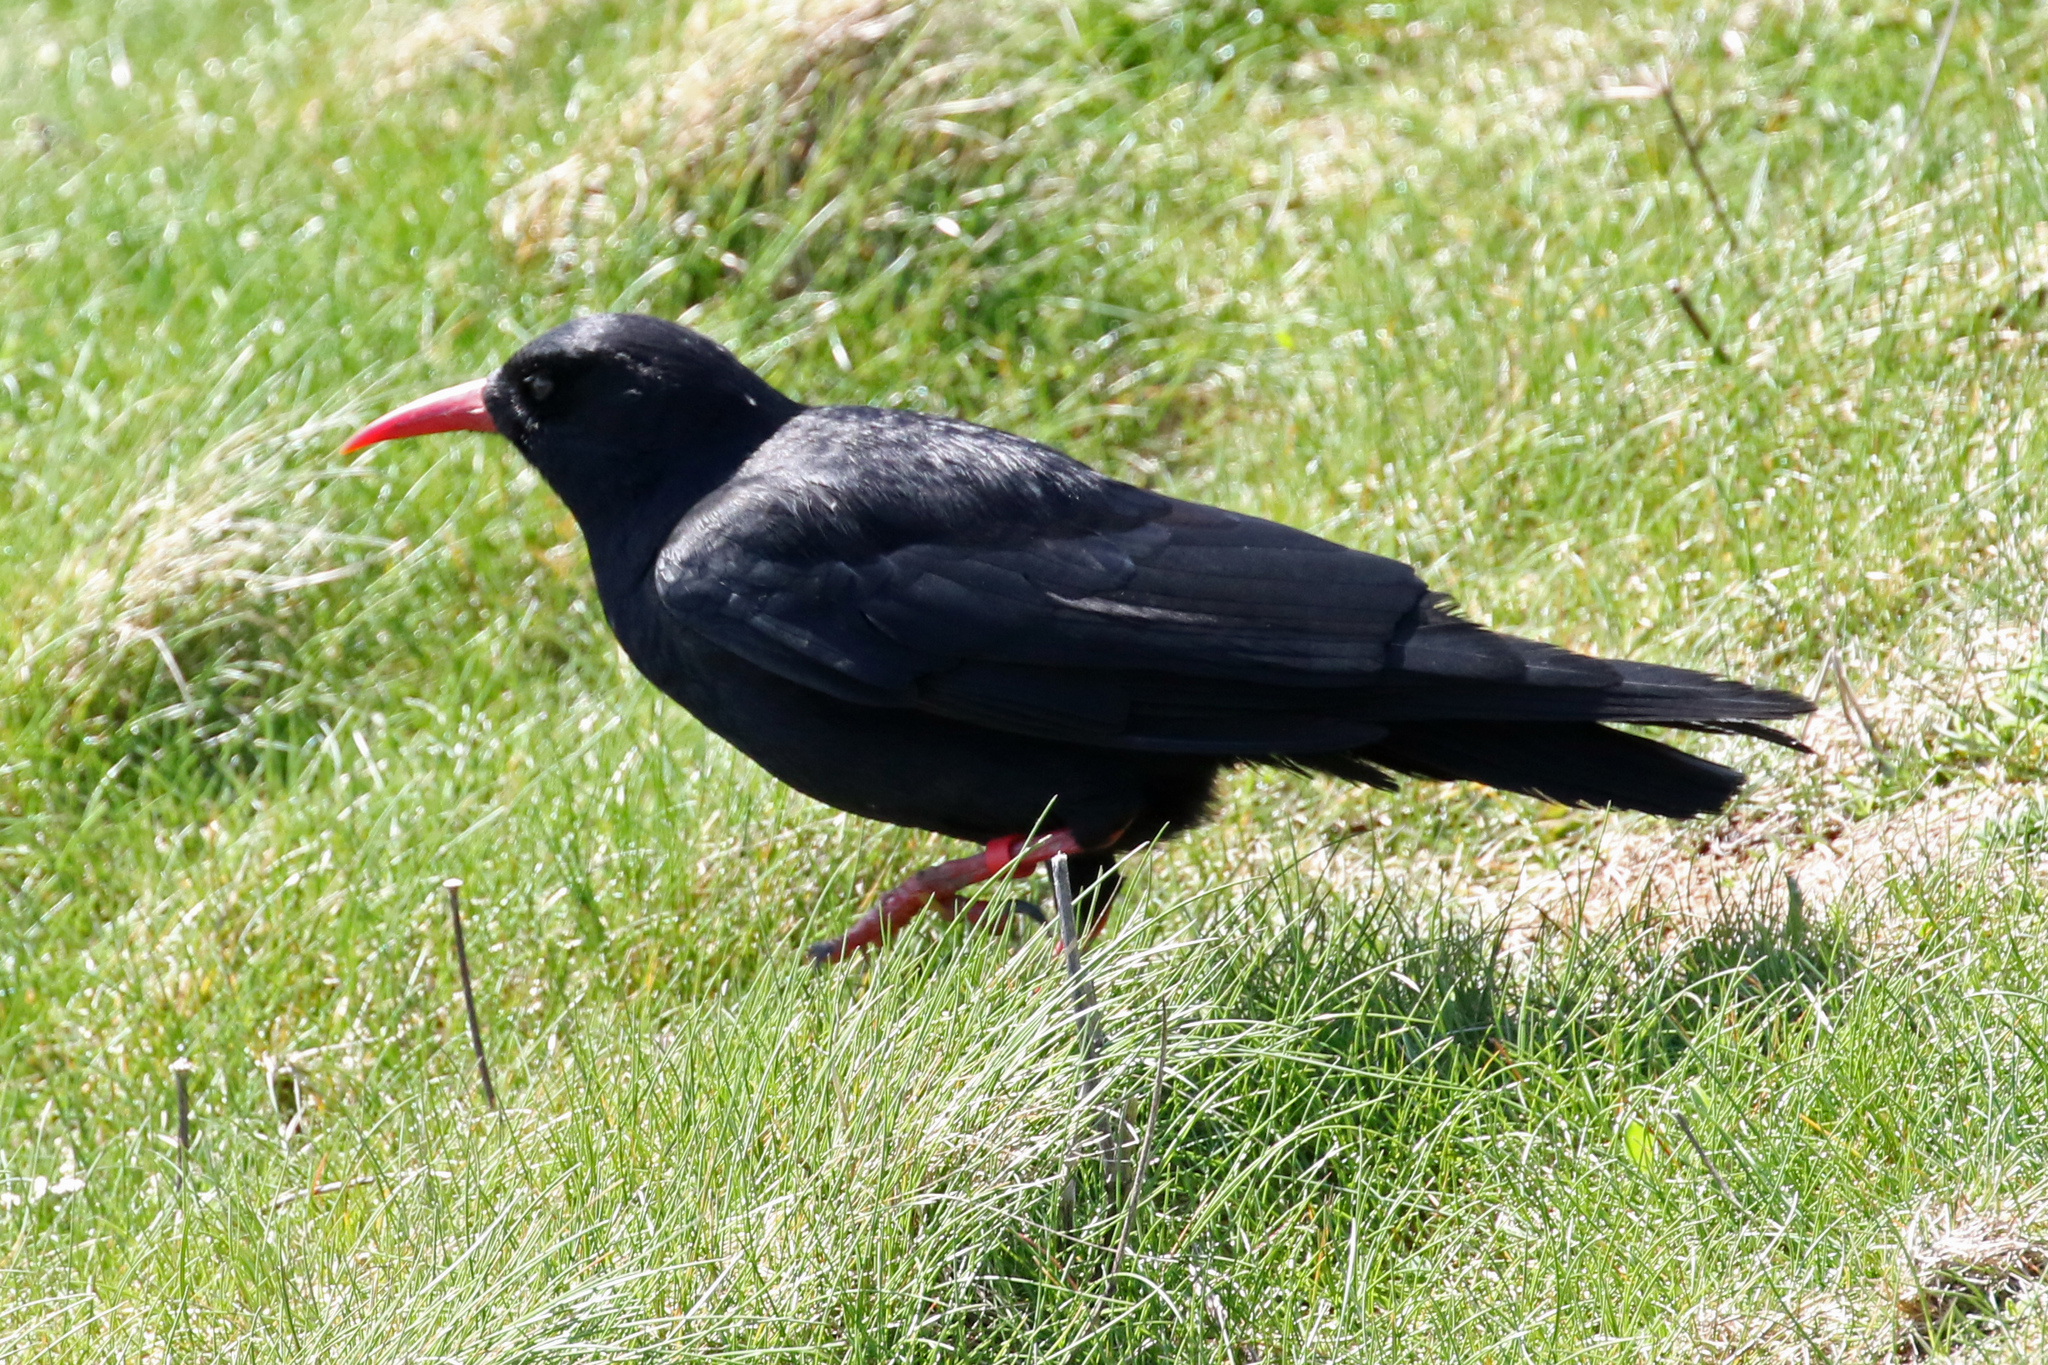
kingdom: Animalia
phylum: Chordata
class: Aves
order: Passeriformes
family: Corvidae
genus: Pyrrhocorax
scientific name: Pyrrhocorax pyrrhocorax
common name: Red-billed chough
